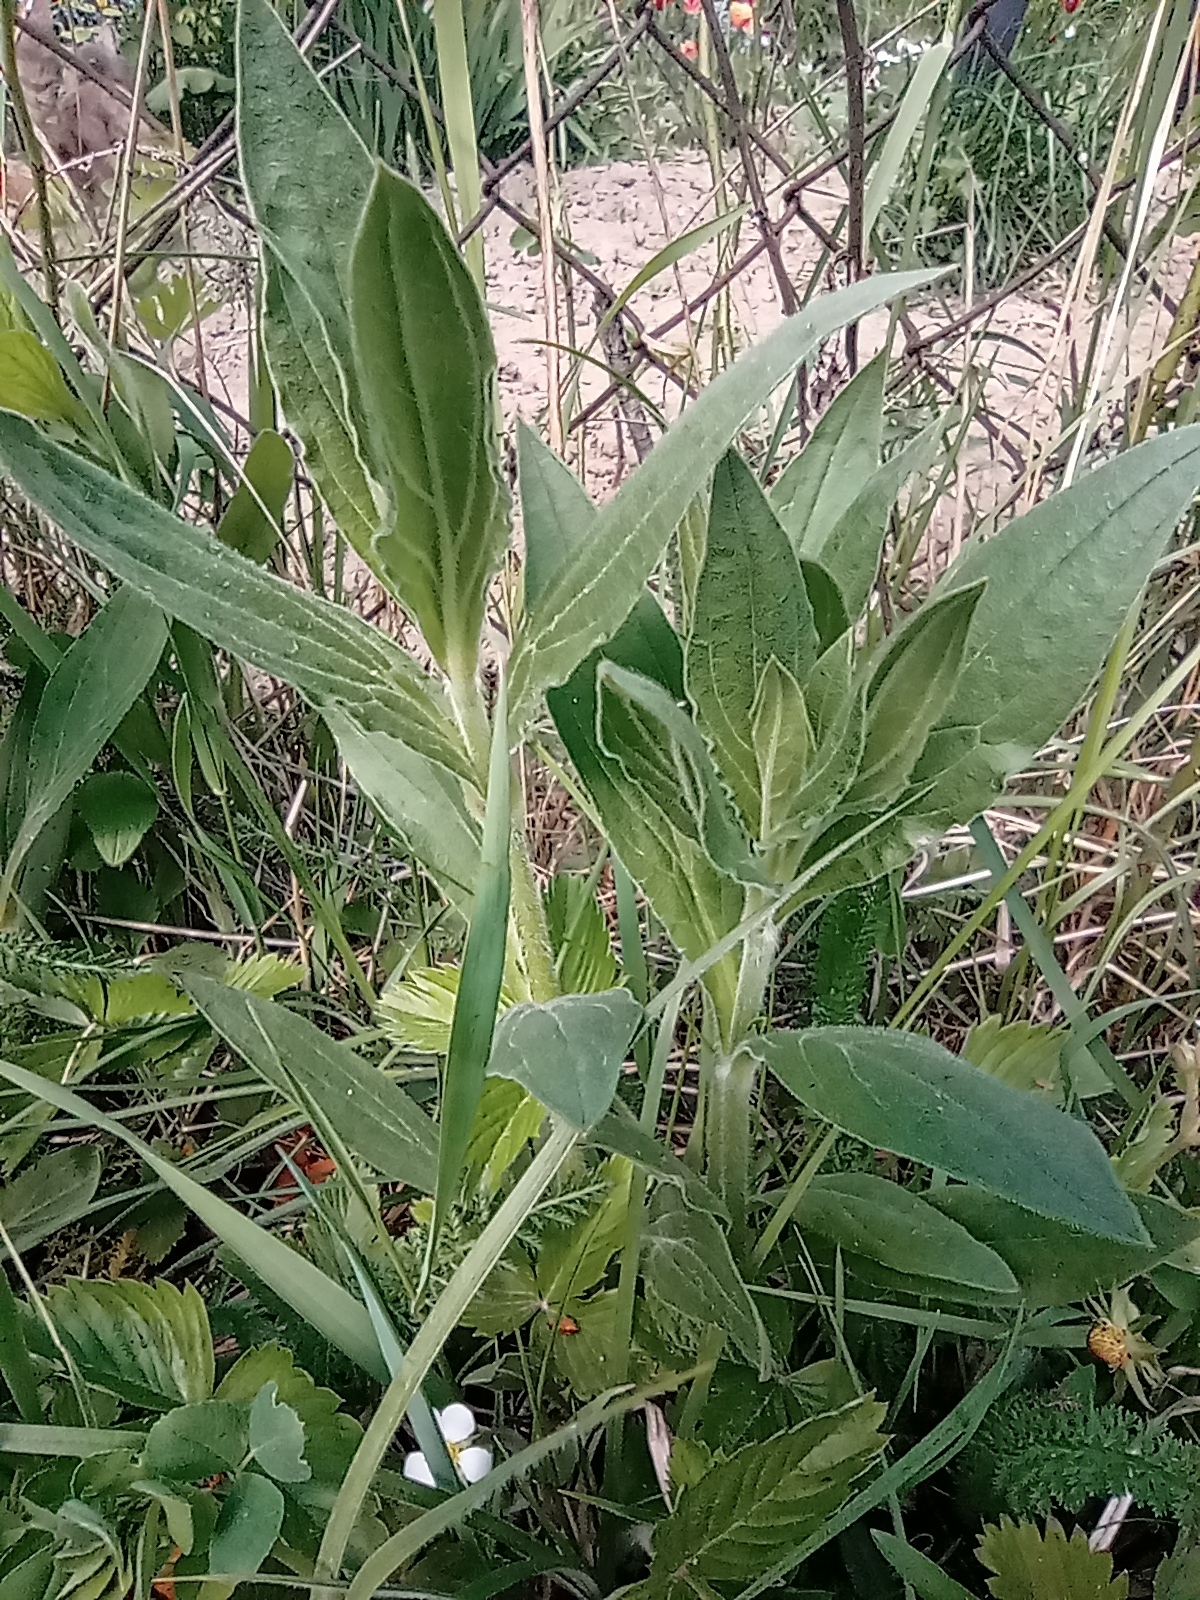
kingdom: Plantae
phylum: Tracheophyta
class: Magnoliopsida
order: Caryophyllales
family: Caryophyllaceae
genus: Silene
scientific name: Silene latifolia
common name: White campion
